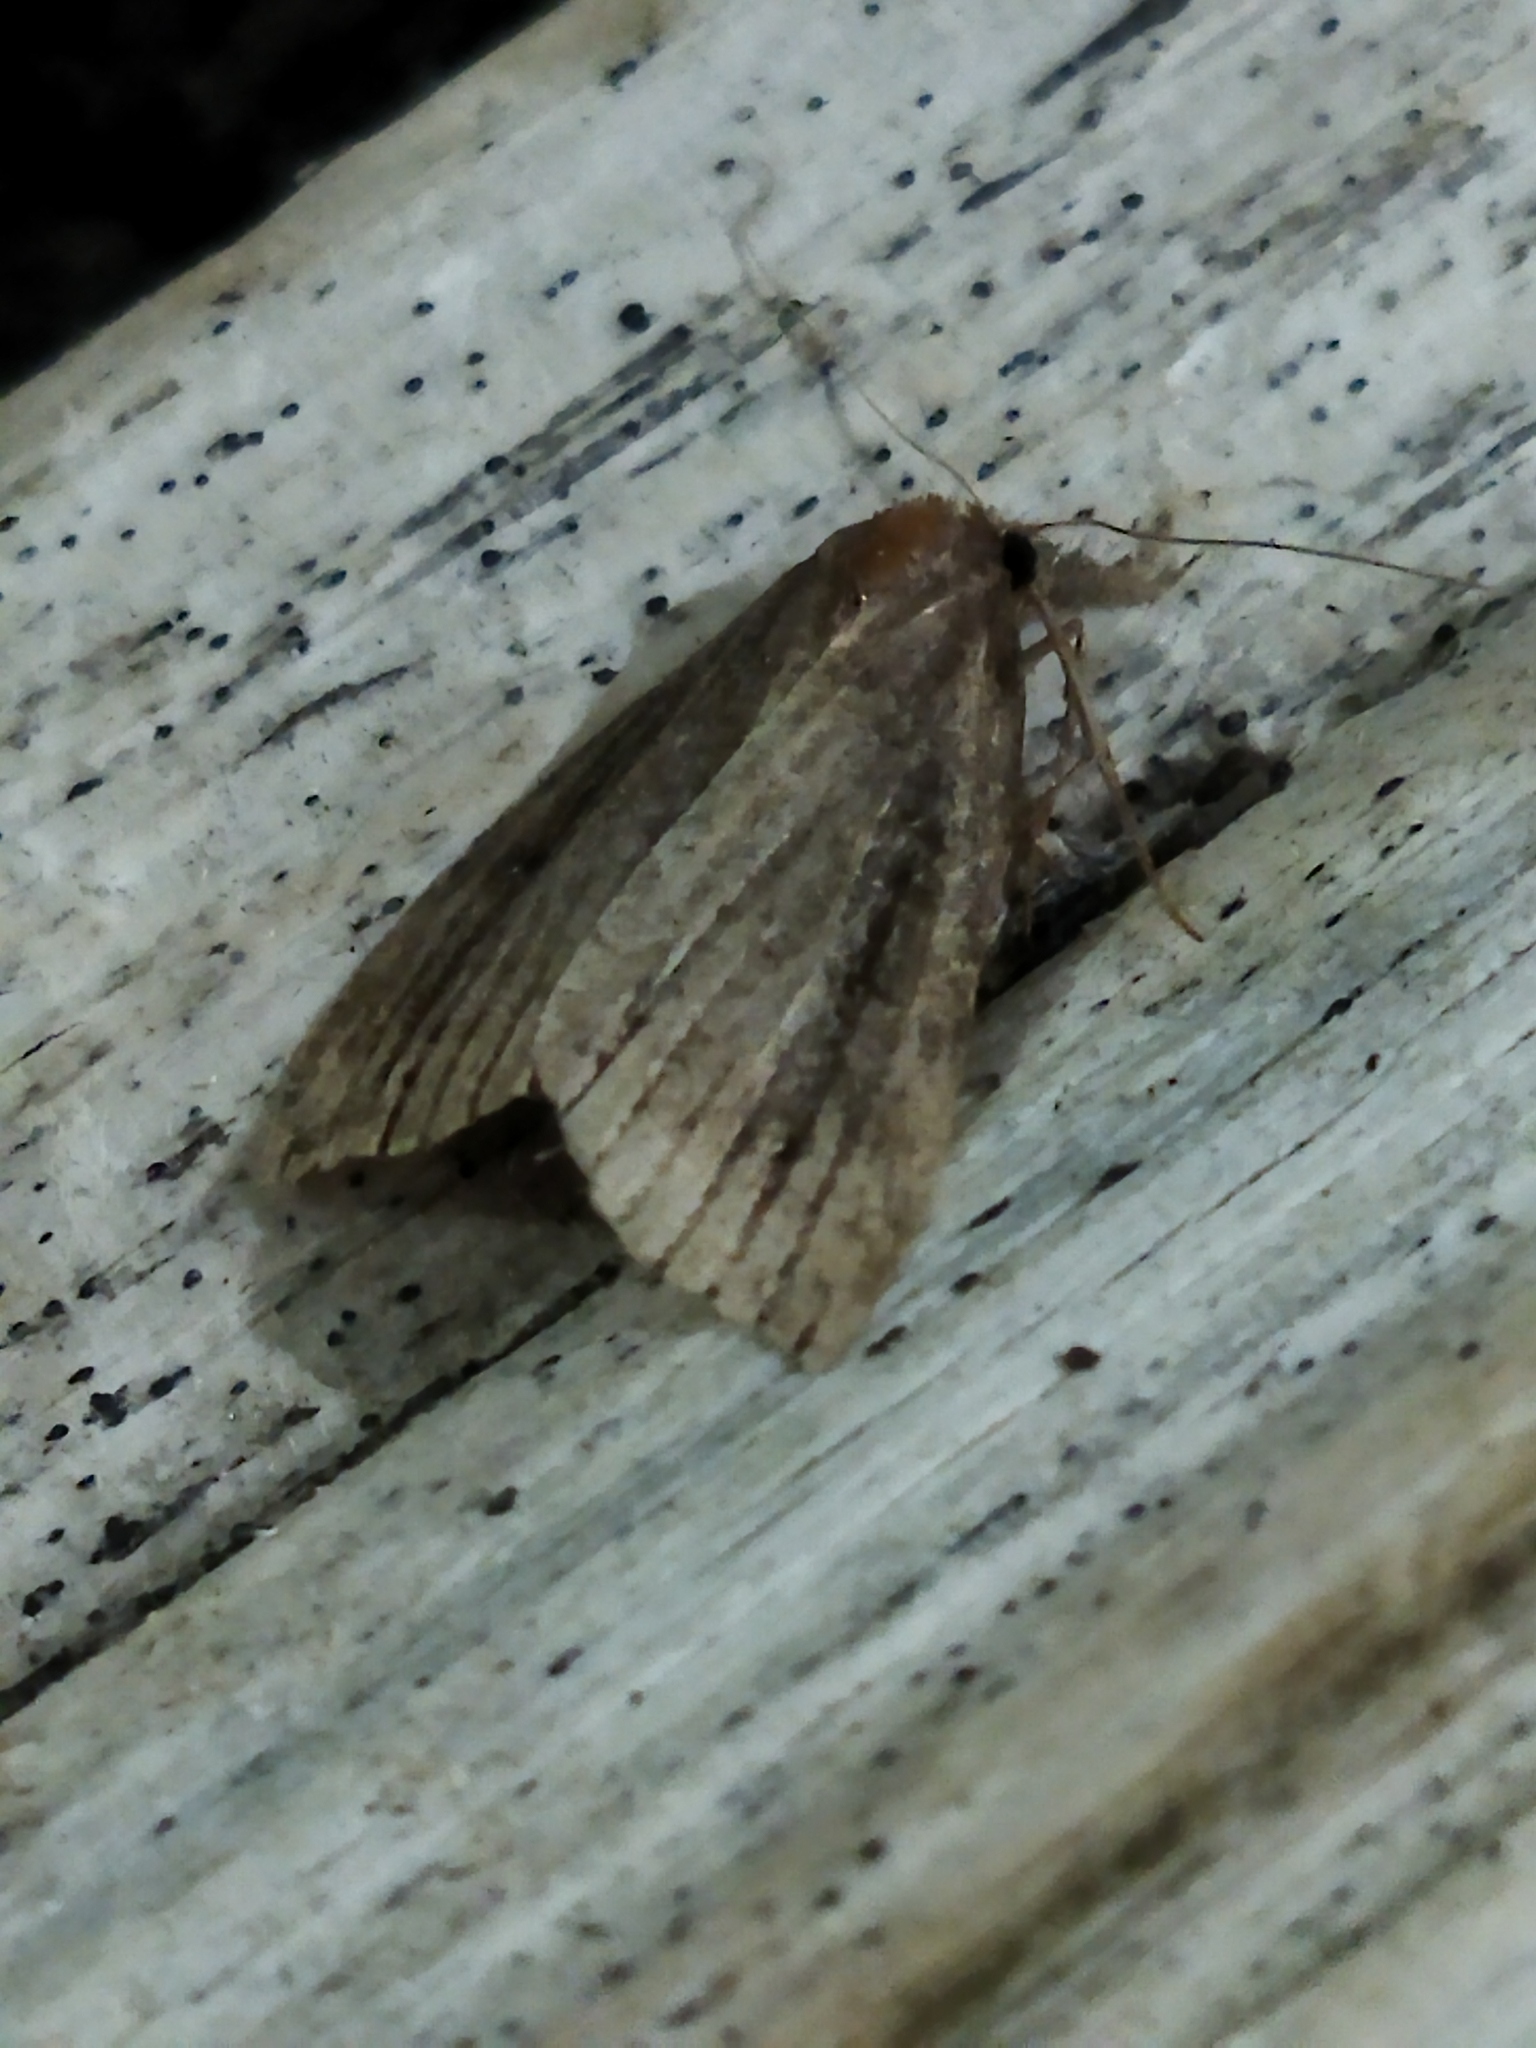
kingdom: Animalia
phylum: Arthropoda
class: Insecta
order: Lepidoptera
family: Erebidae
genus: Hypena
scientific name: Hypena rostralis
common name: Buttoned snout
